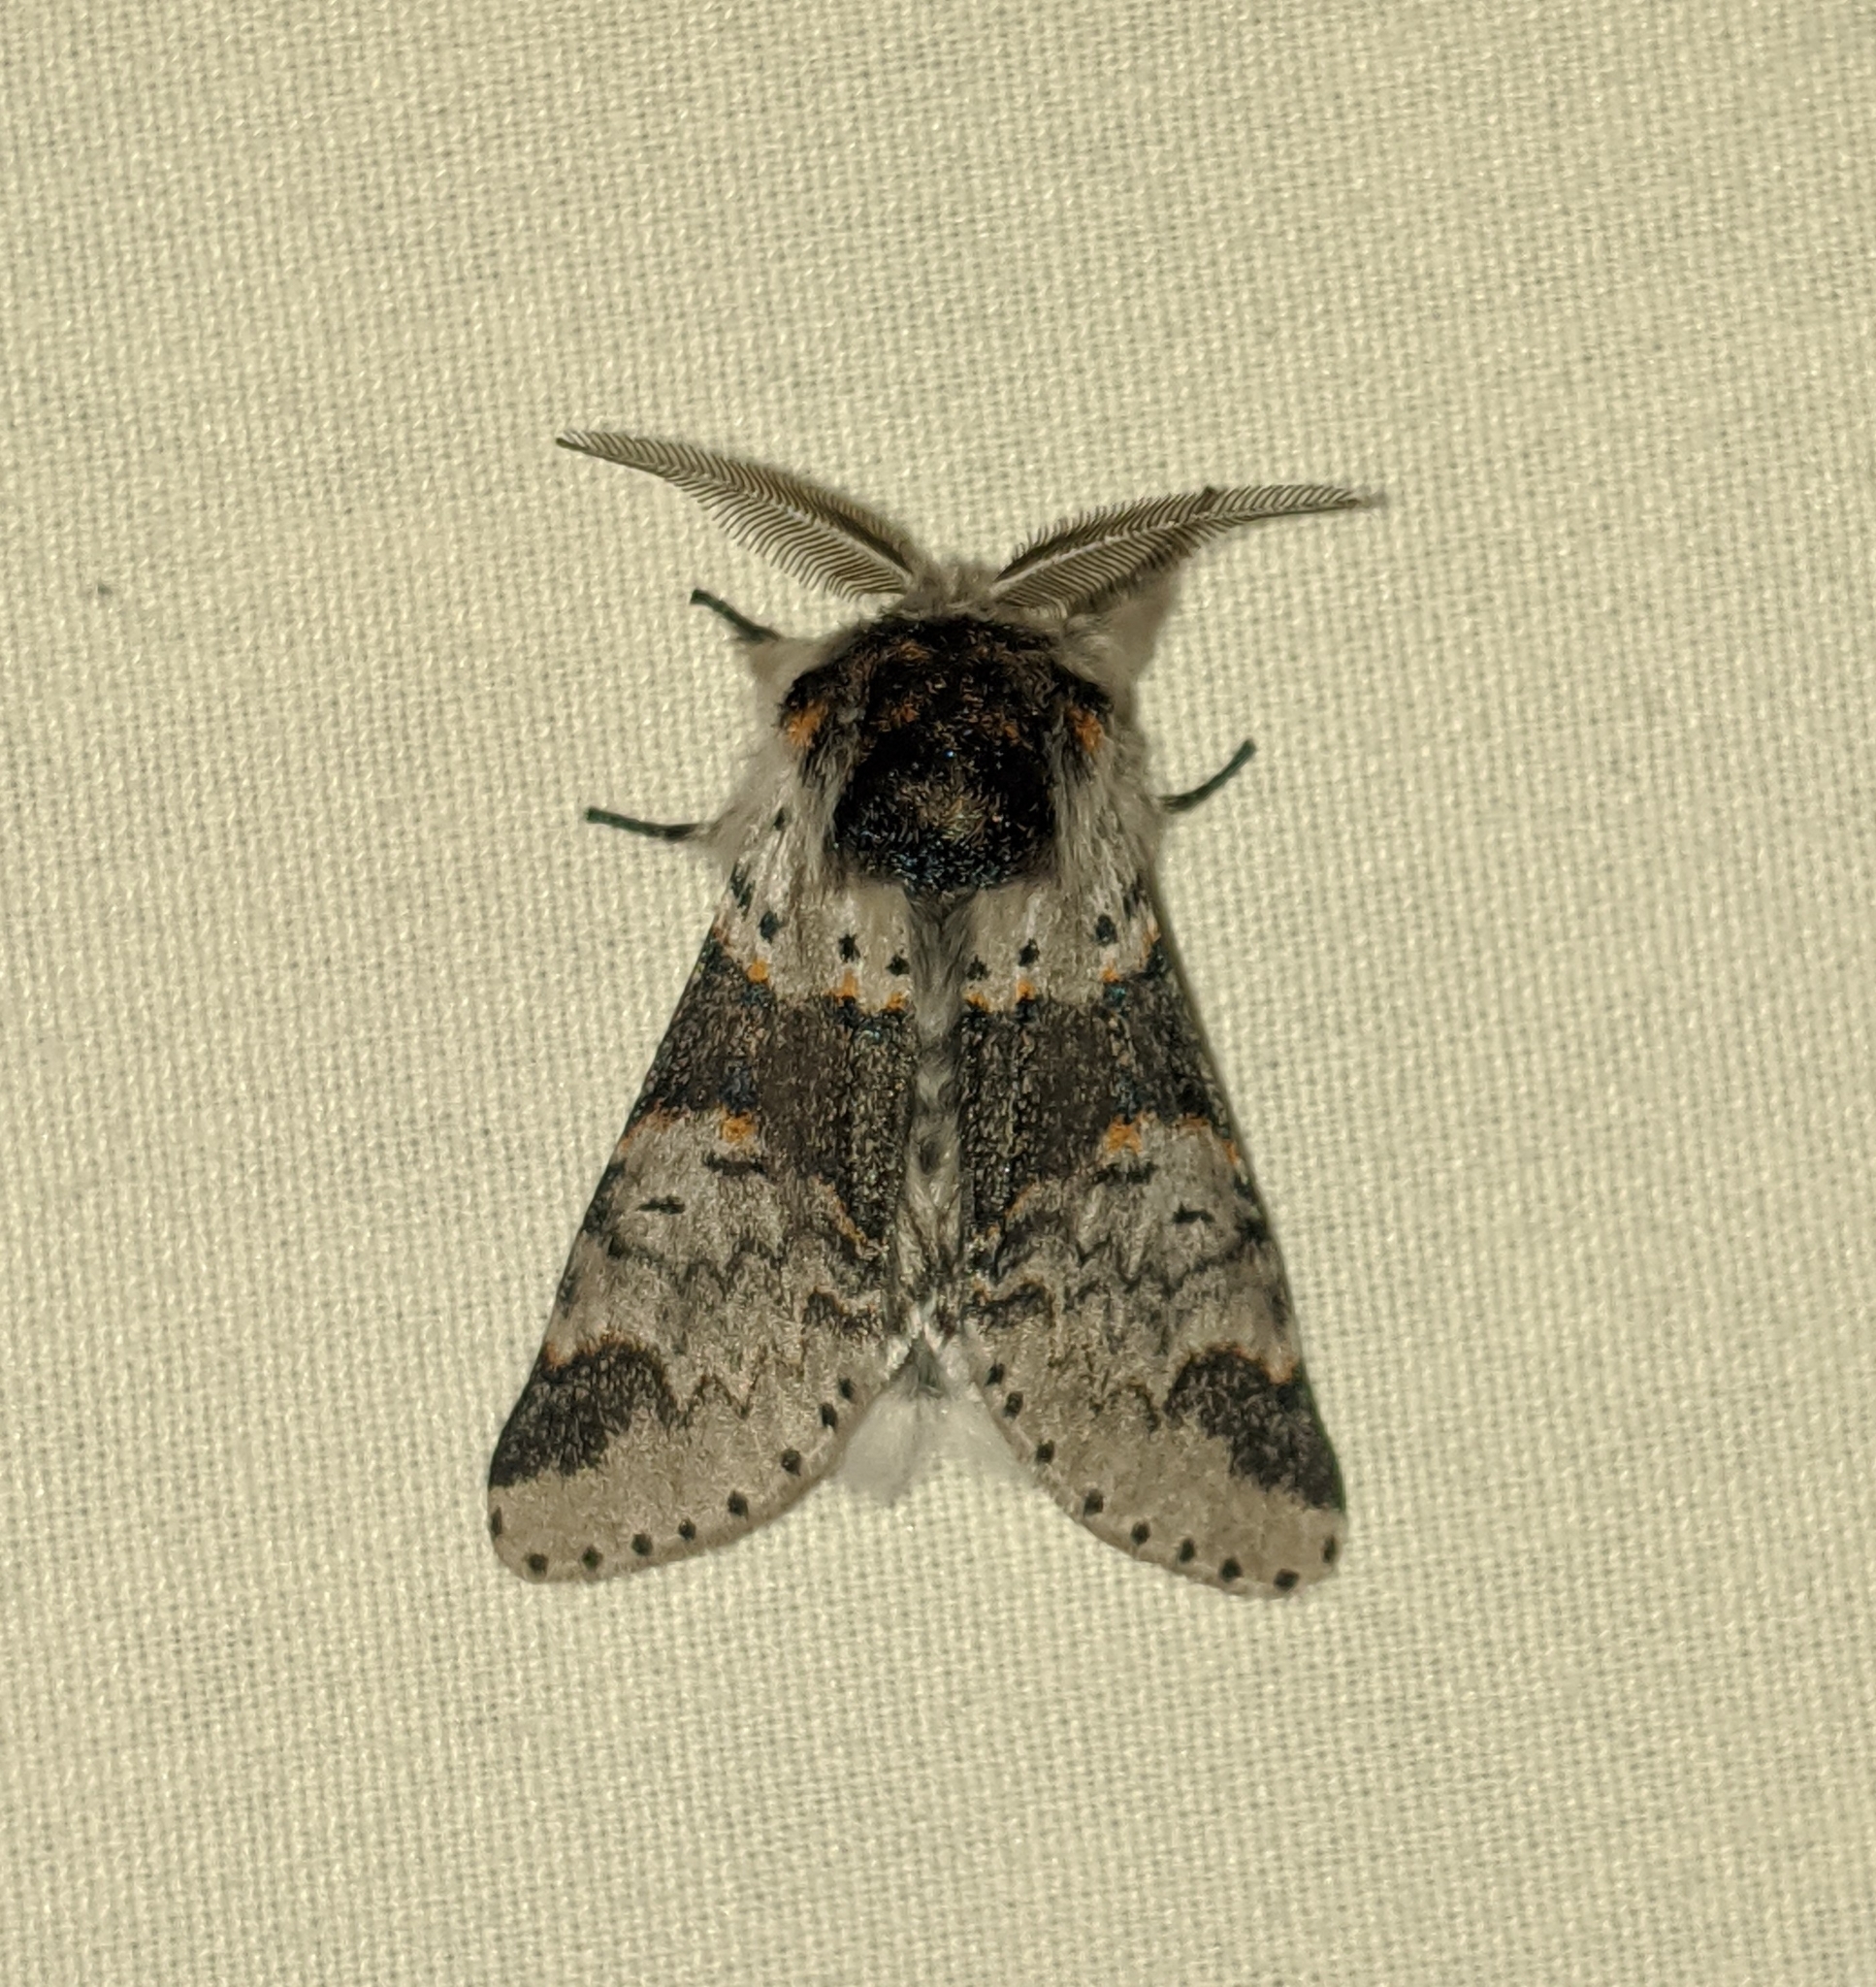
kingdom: Animalia
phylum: Arthropoda
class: Insecta
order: Lepidoptera
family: Notodontidae
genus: Furcula
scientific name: Furcula occidentalis
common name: Western furcula moth
